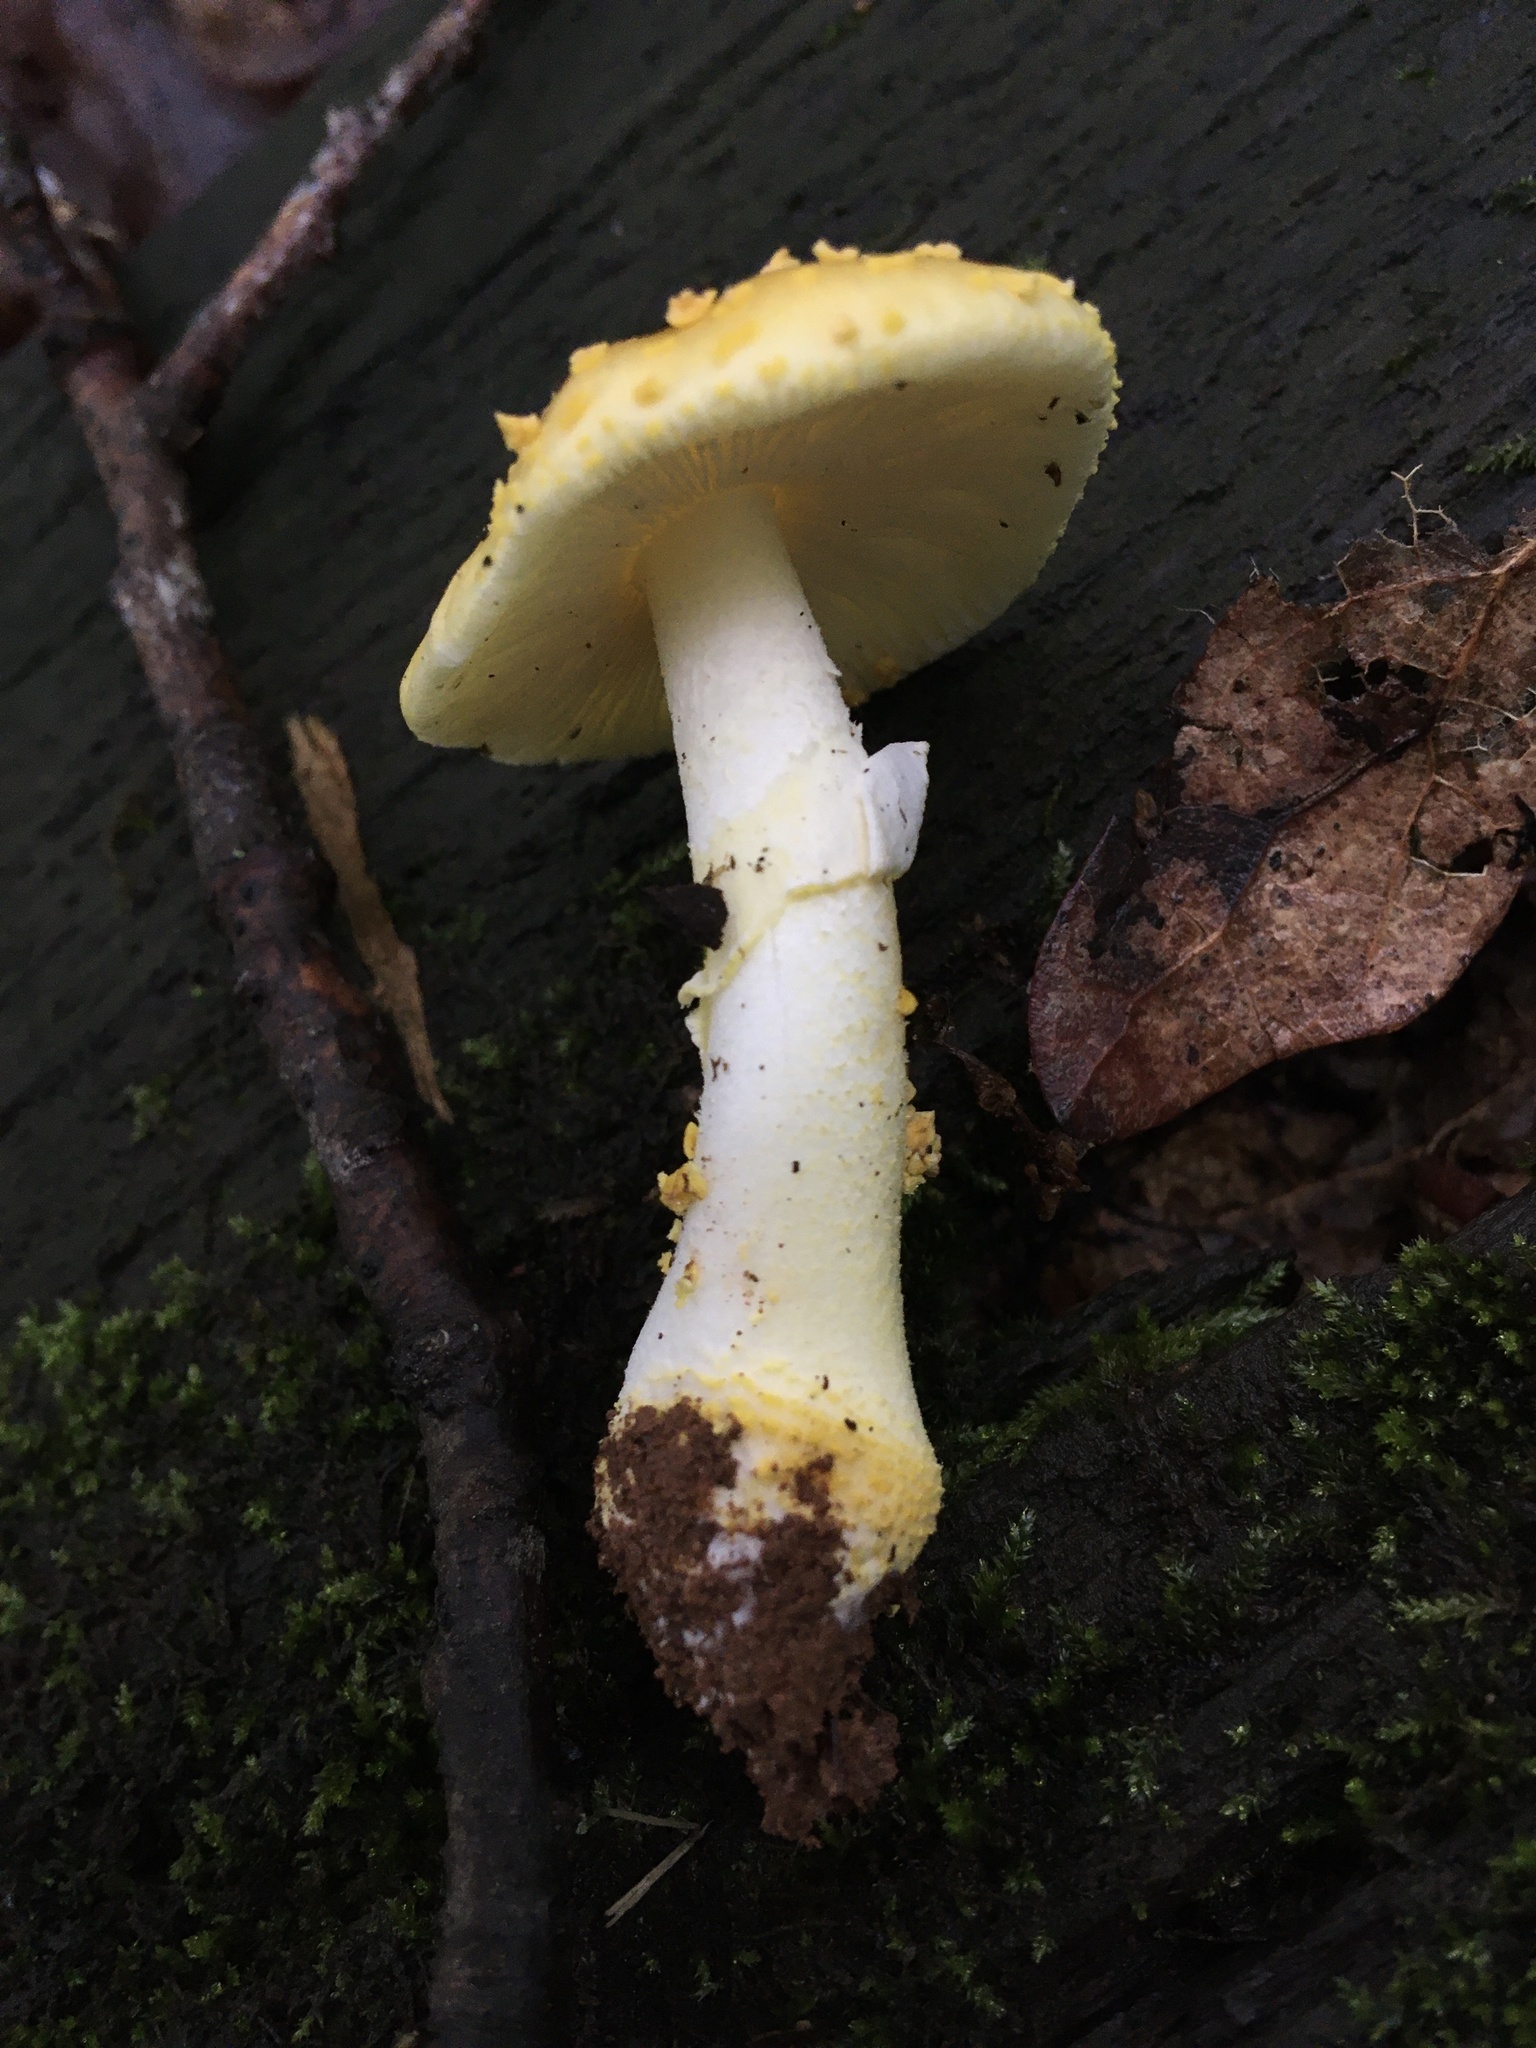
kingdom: Fungi
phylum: Basidiomycota
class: Agaricomycetes
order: Agaricales
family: Amanitaceae
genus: Amanita
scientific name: Amanita flavoconia
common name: Yellow patches
